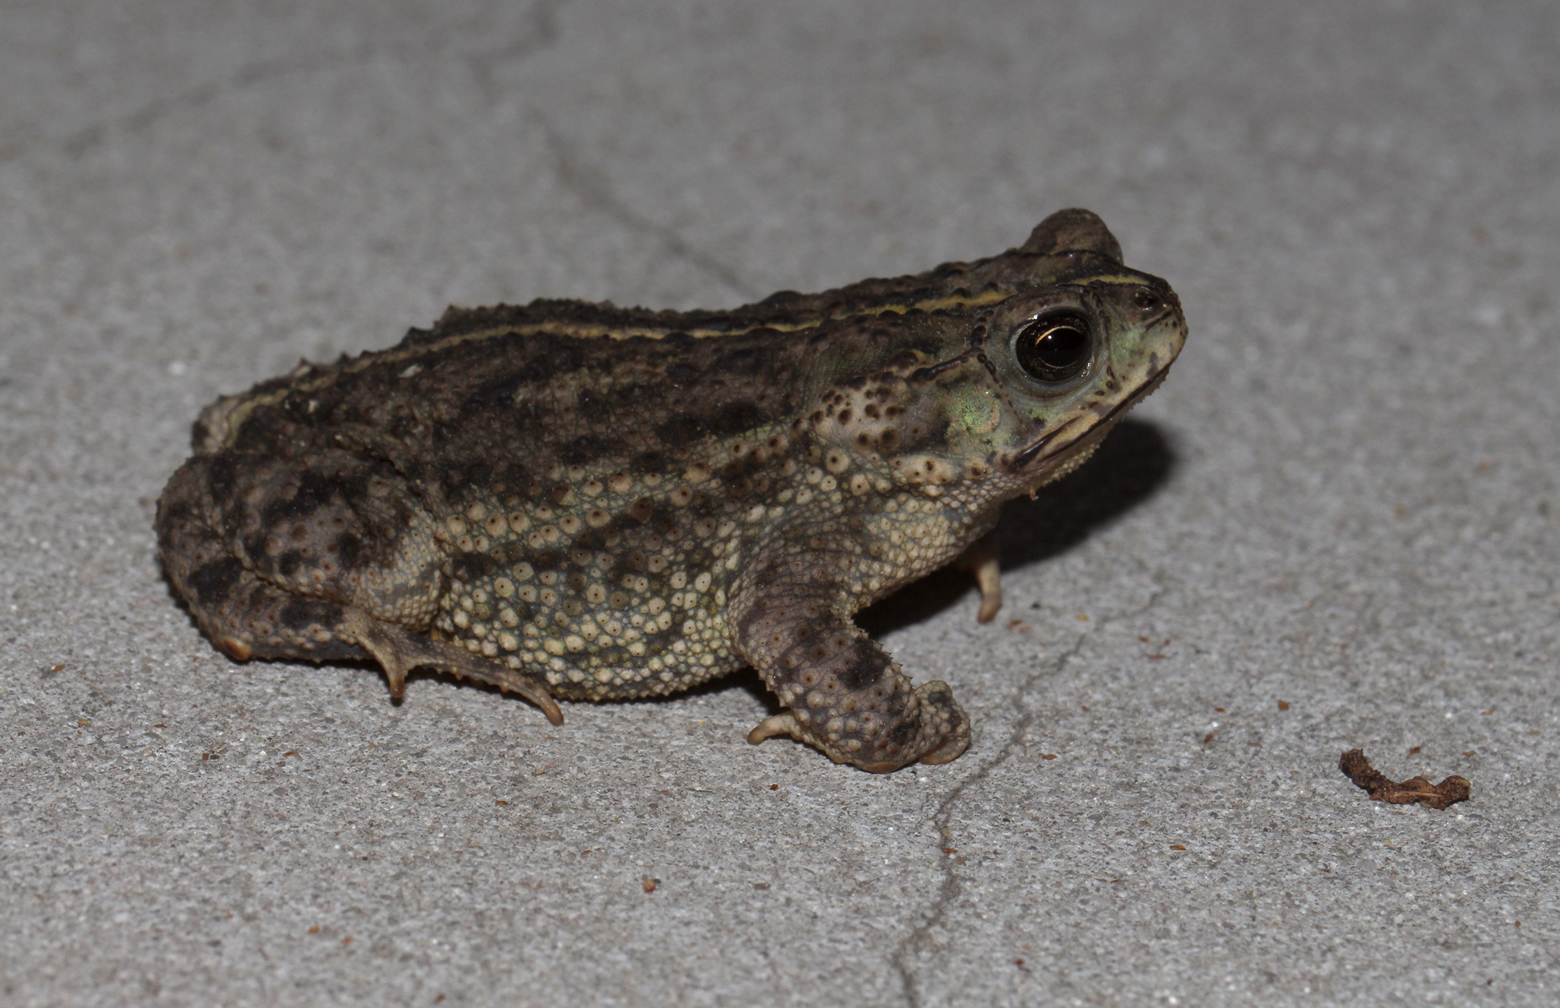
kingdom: Animalia
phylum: Chordata
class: Amphibia
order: Anura
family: Bufonidae
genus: Rhinella
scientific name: Rhinella dorbignyi
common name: D´orbigny’s toad
